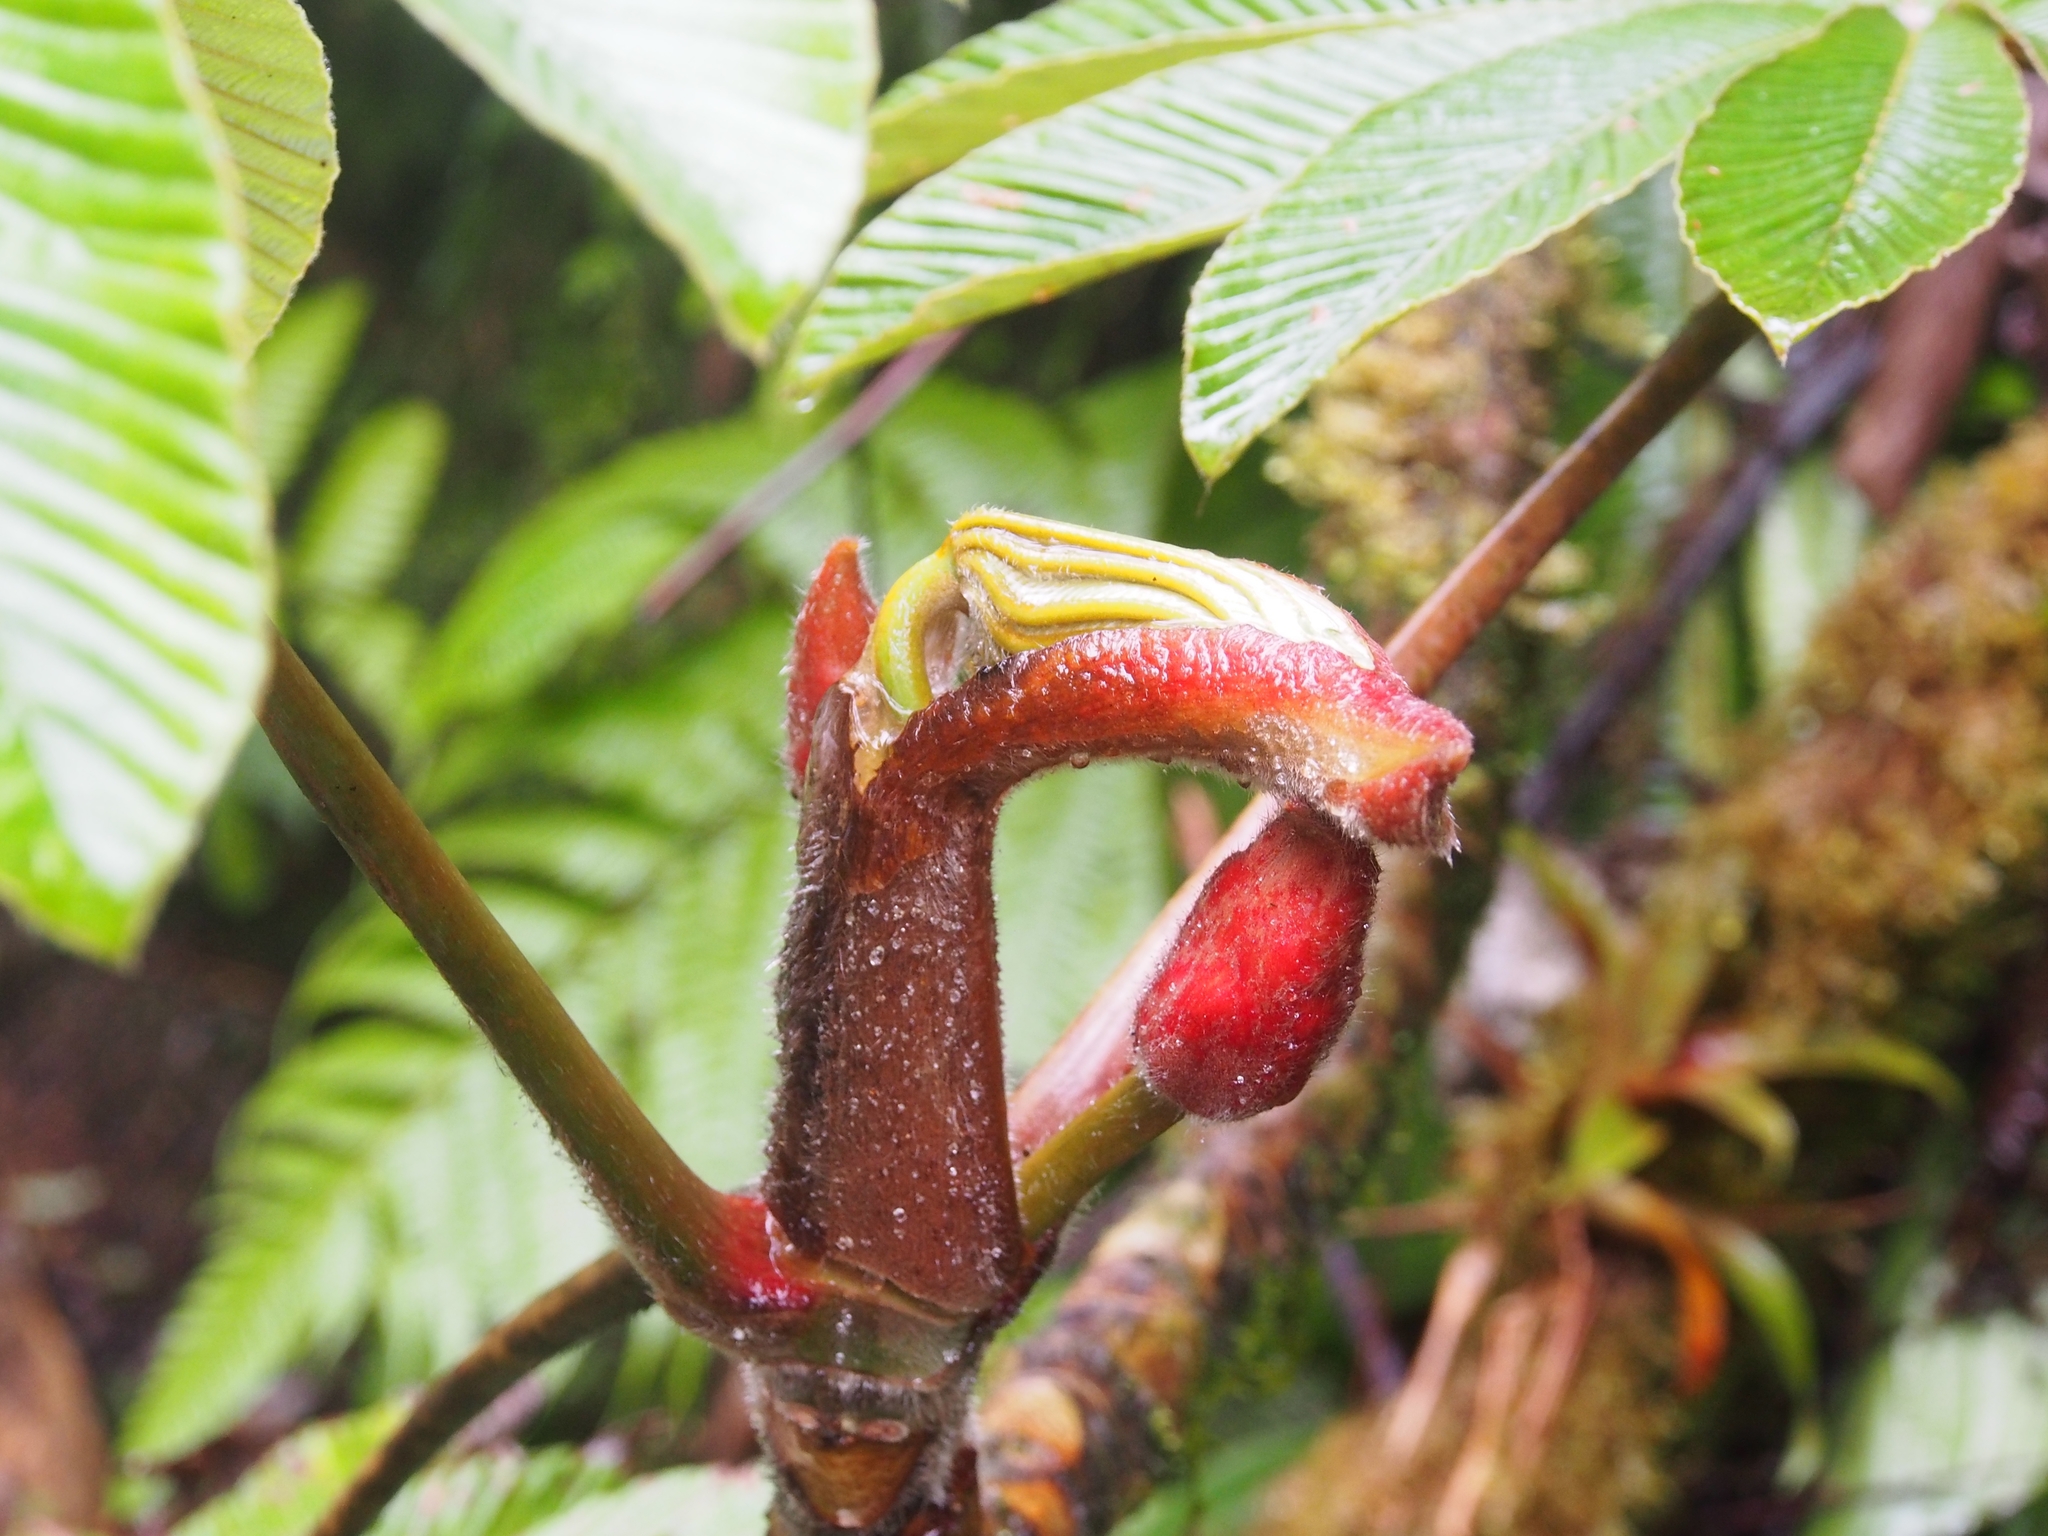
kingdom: Plantae
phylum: Tracheophyta
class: Magnoliopsida
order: Rosales
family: Urticaceae
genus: Cecropia
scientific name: Cecropia angustifolia
